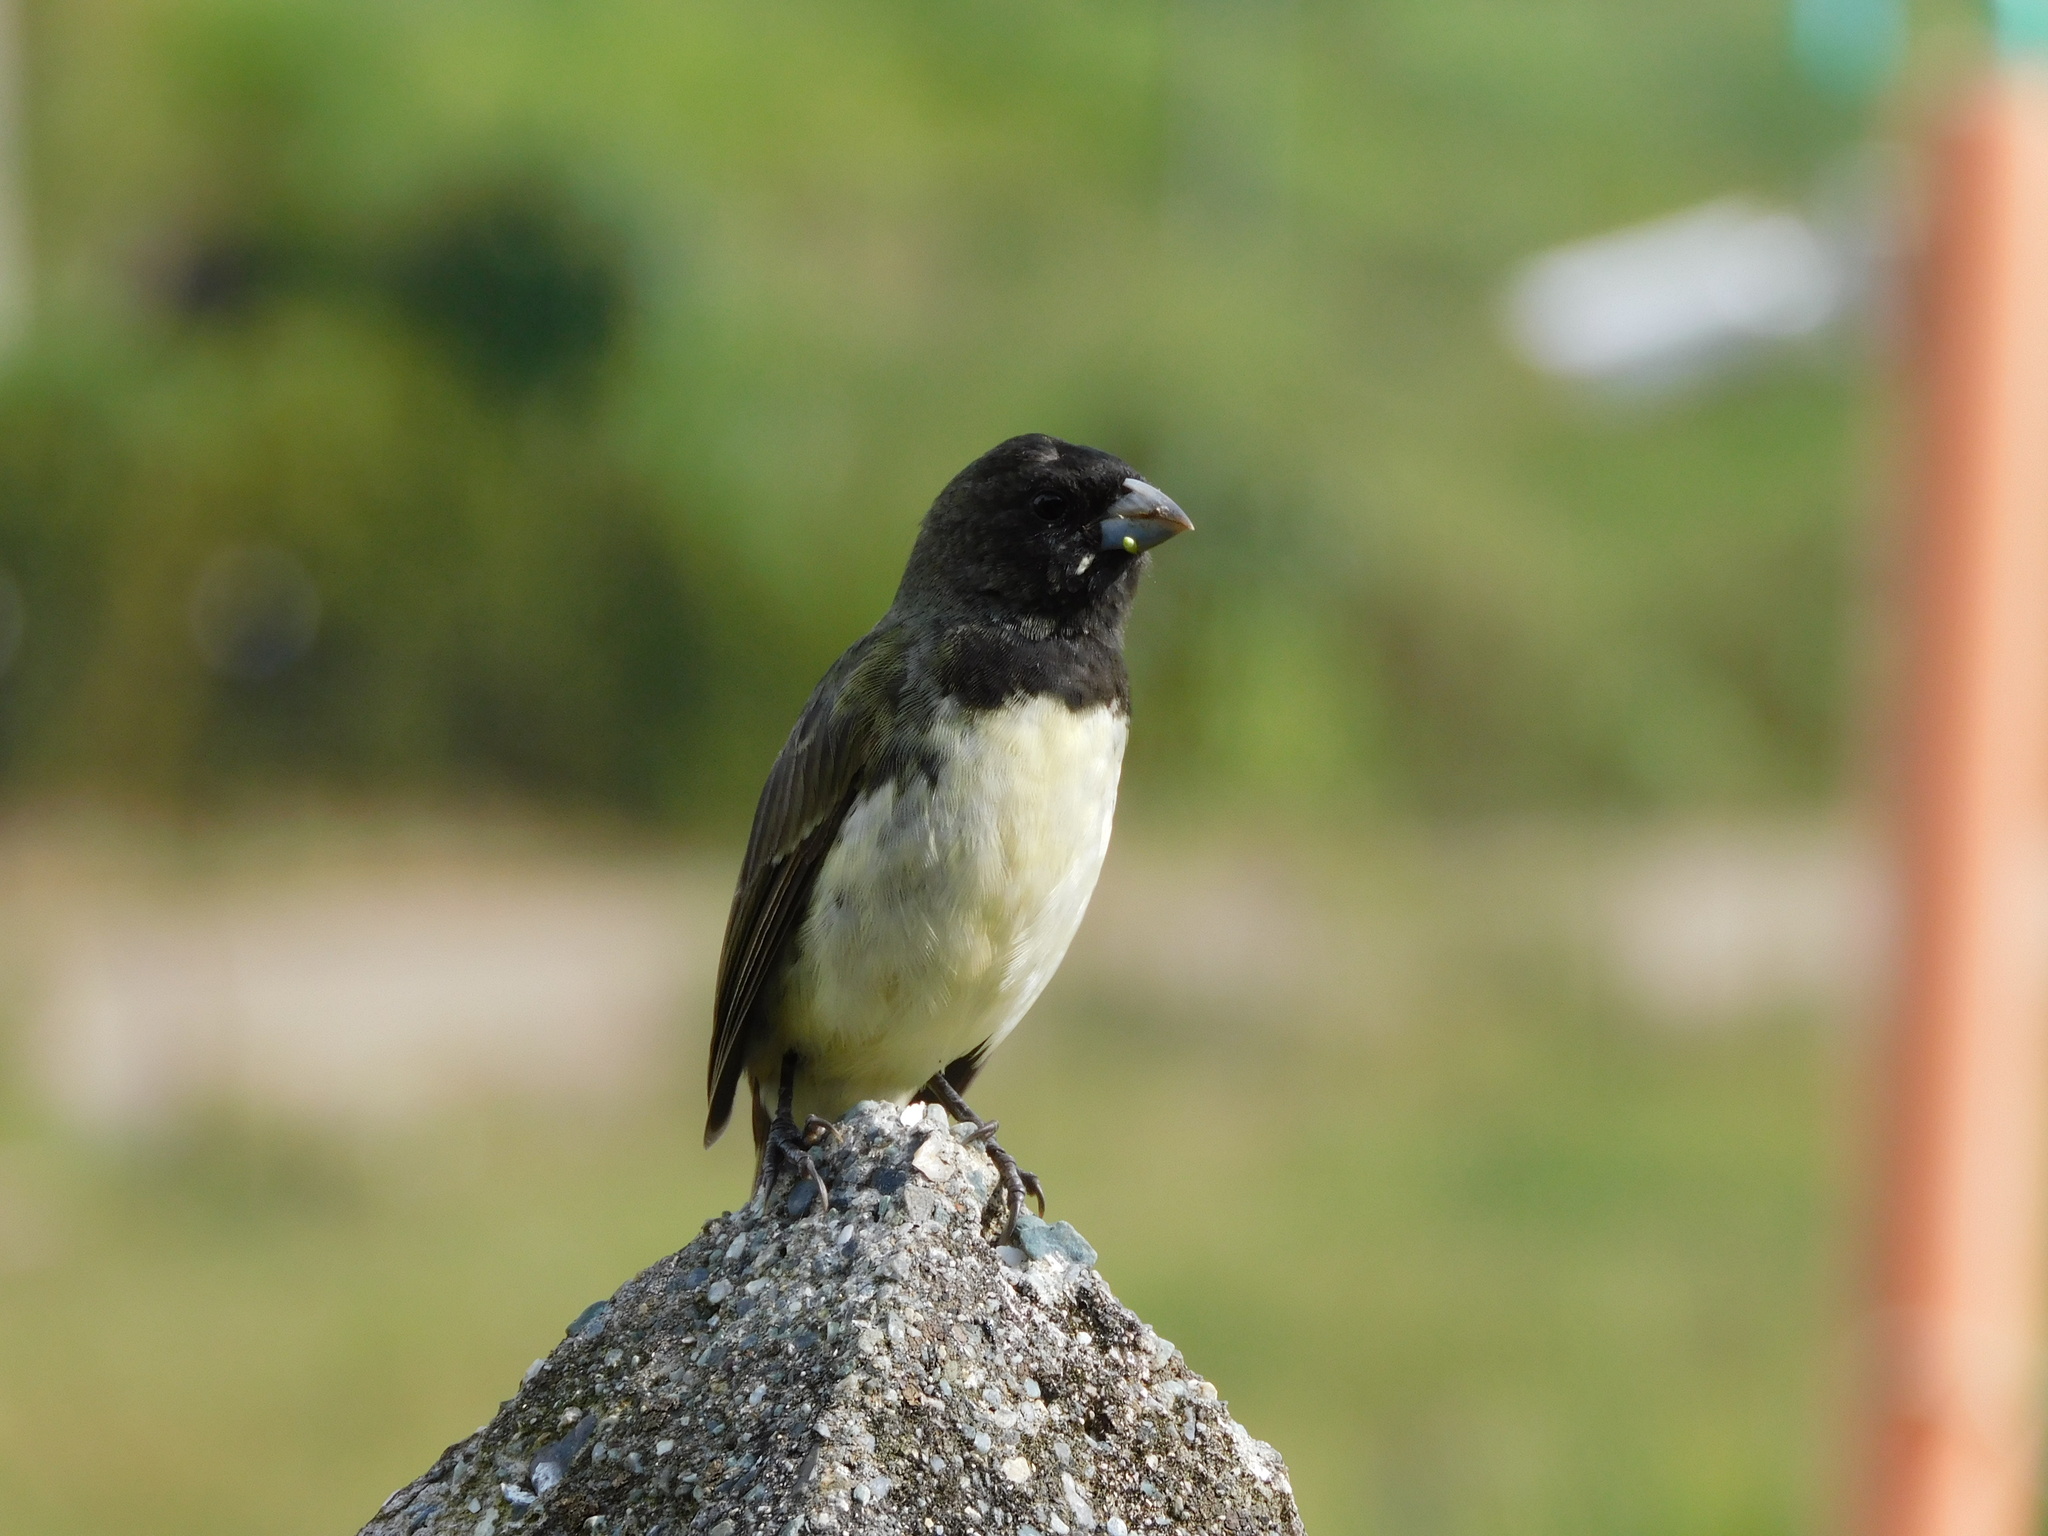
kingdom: Animalia
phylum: Chordata
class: Aves
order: Passeriformes
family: Thraupidae
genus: Sporophila
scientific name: Sporophila nigricollis
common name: Yellow-bellied seedeater
